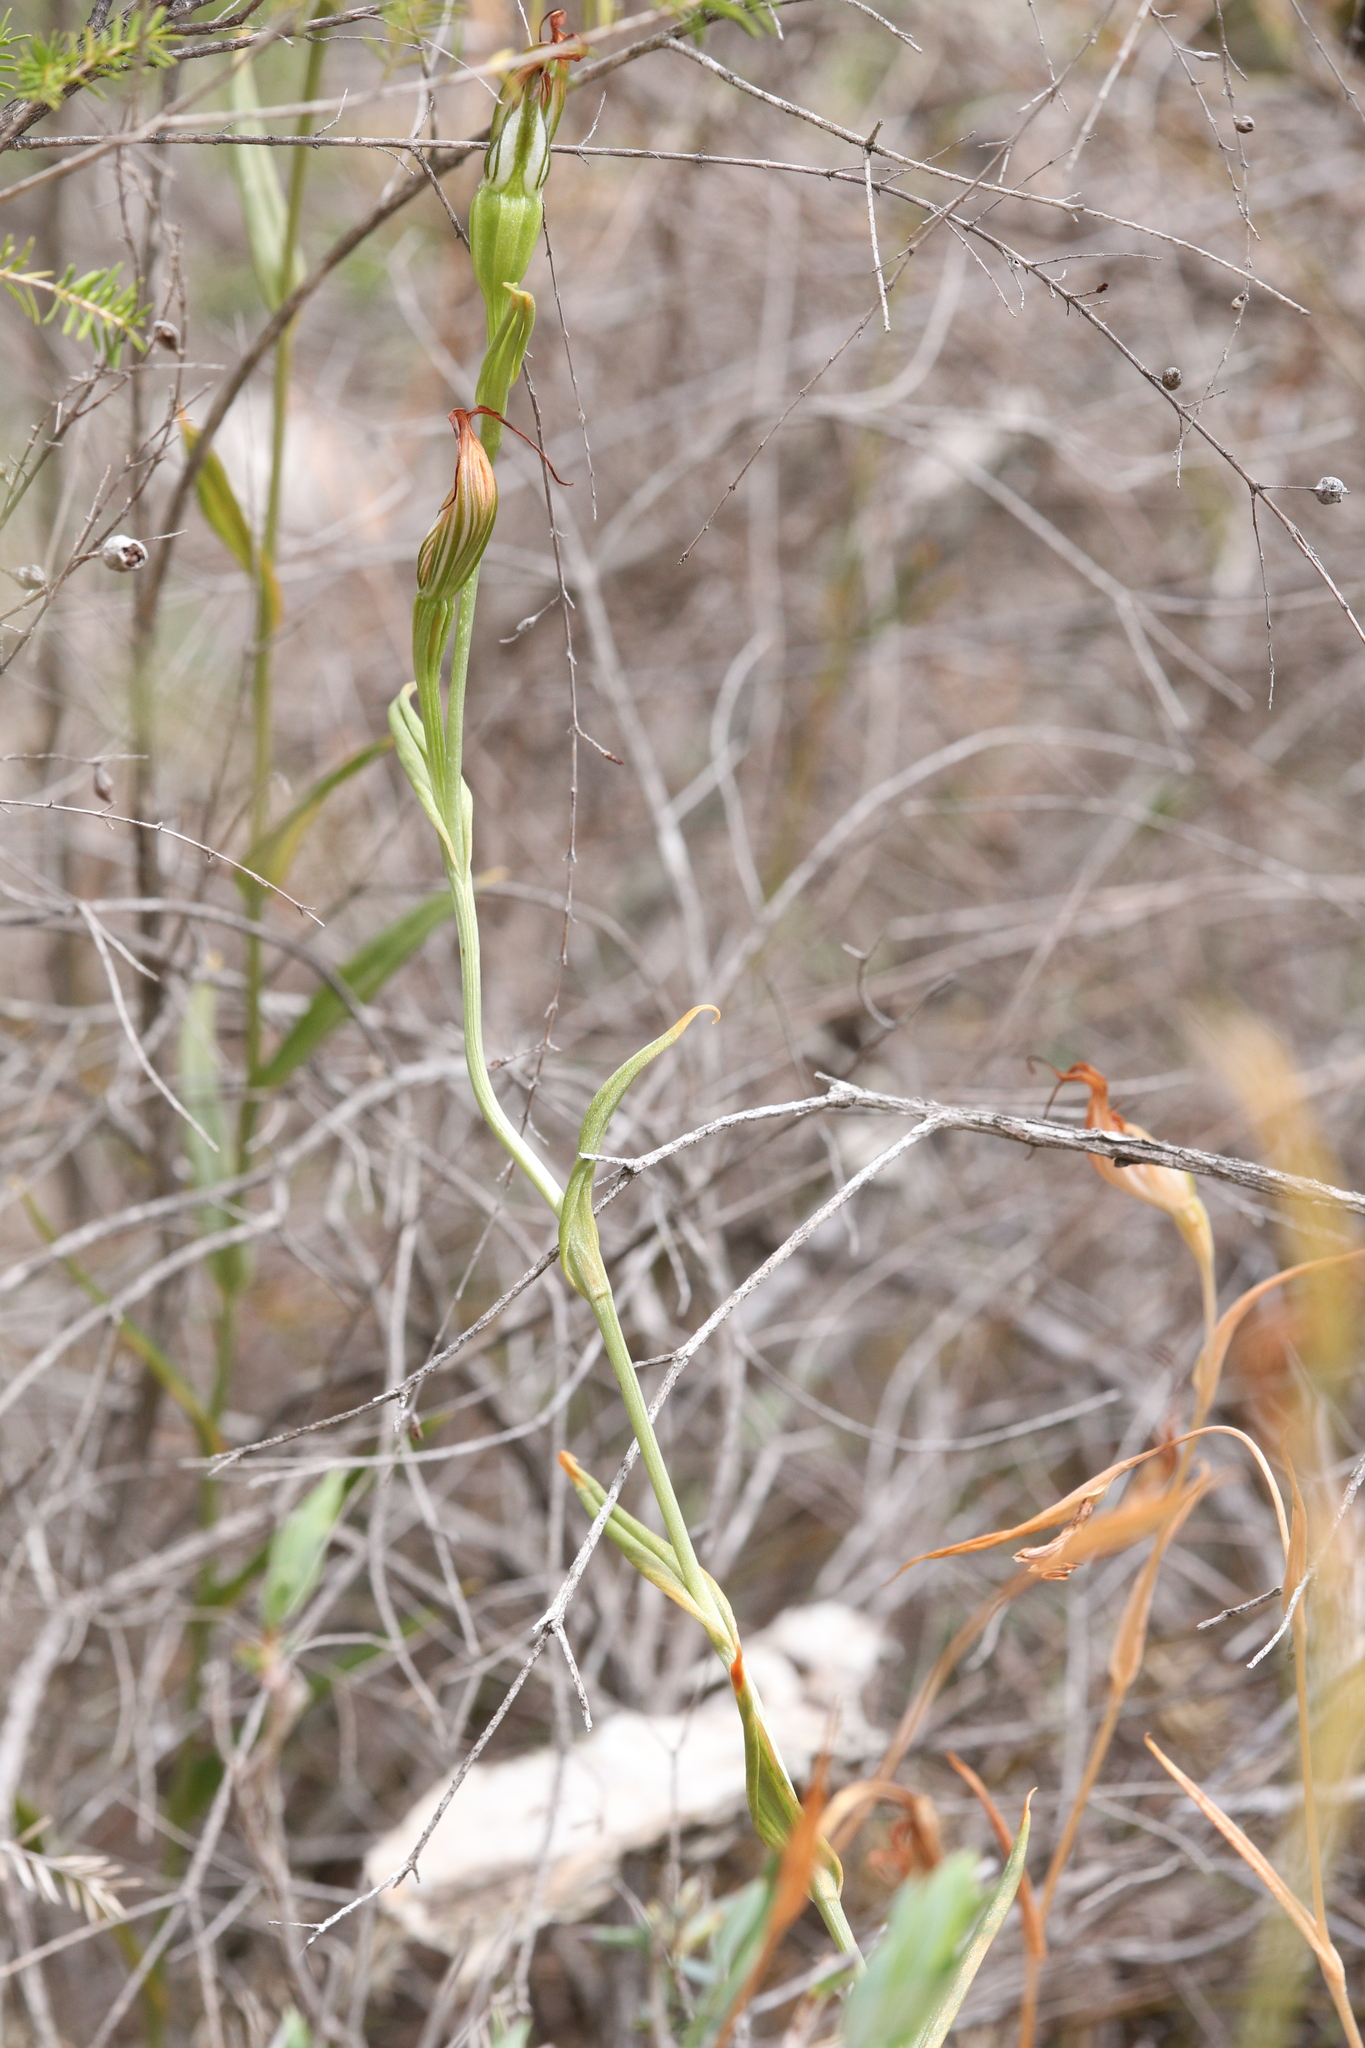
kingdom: Plantae
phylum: Tracheophyta
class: Liliopsida
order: Asparagales
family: Orchidaceae
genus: Pterostylis
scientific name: Pterostylis recurva
